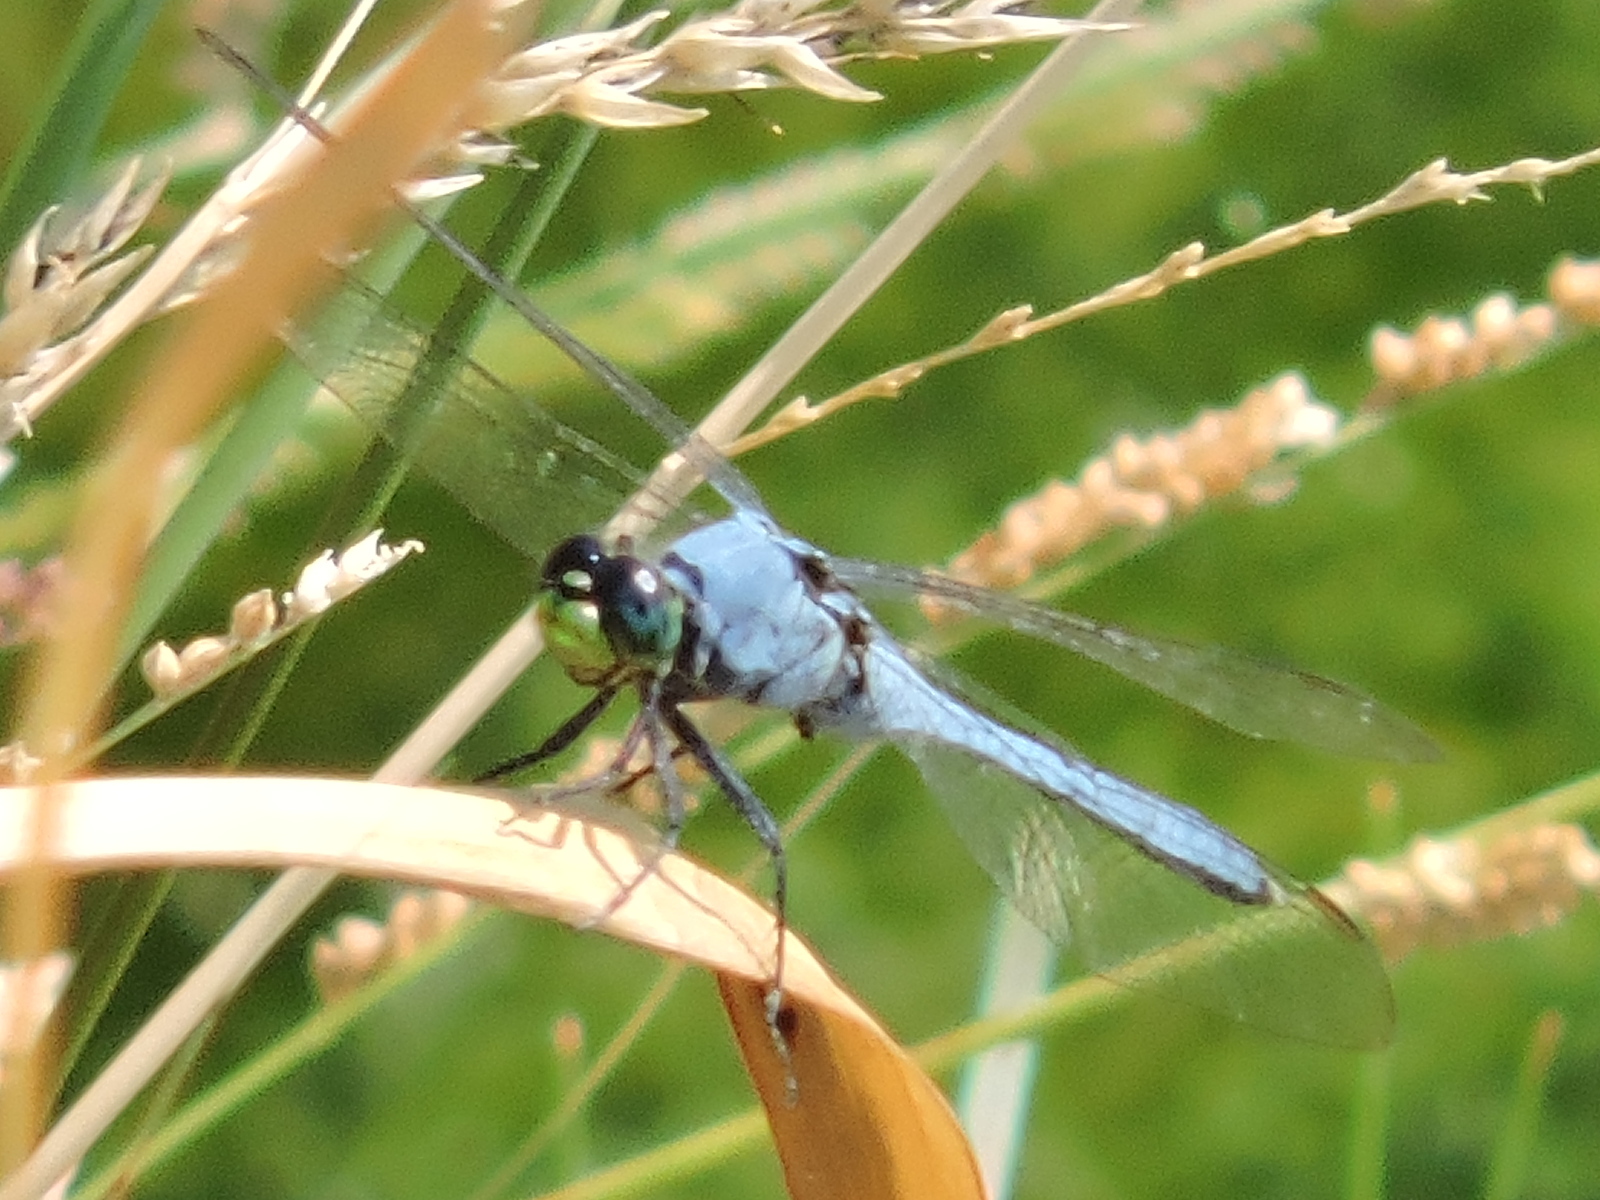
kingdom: Animalia
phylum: Arthropoda
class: Insecta
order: Odonata
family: Libellulidae
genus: Erythemis
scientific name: Erythemis simplicicollis
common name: Eastern pondhawk
